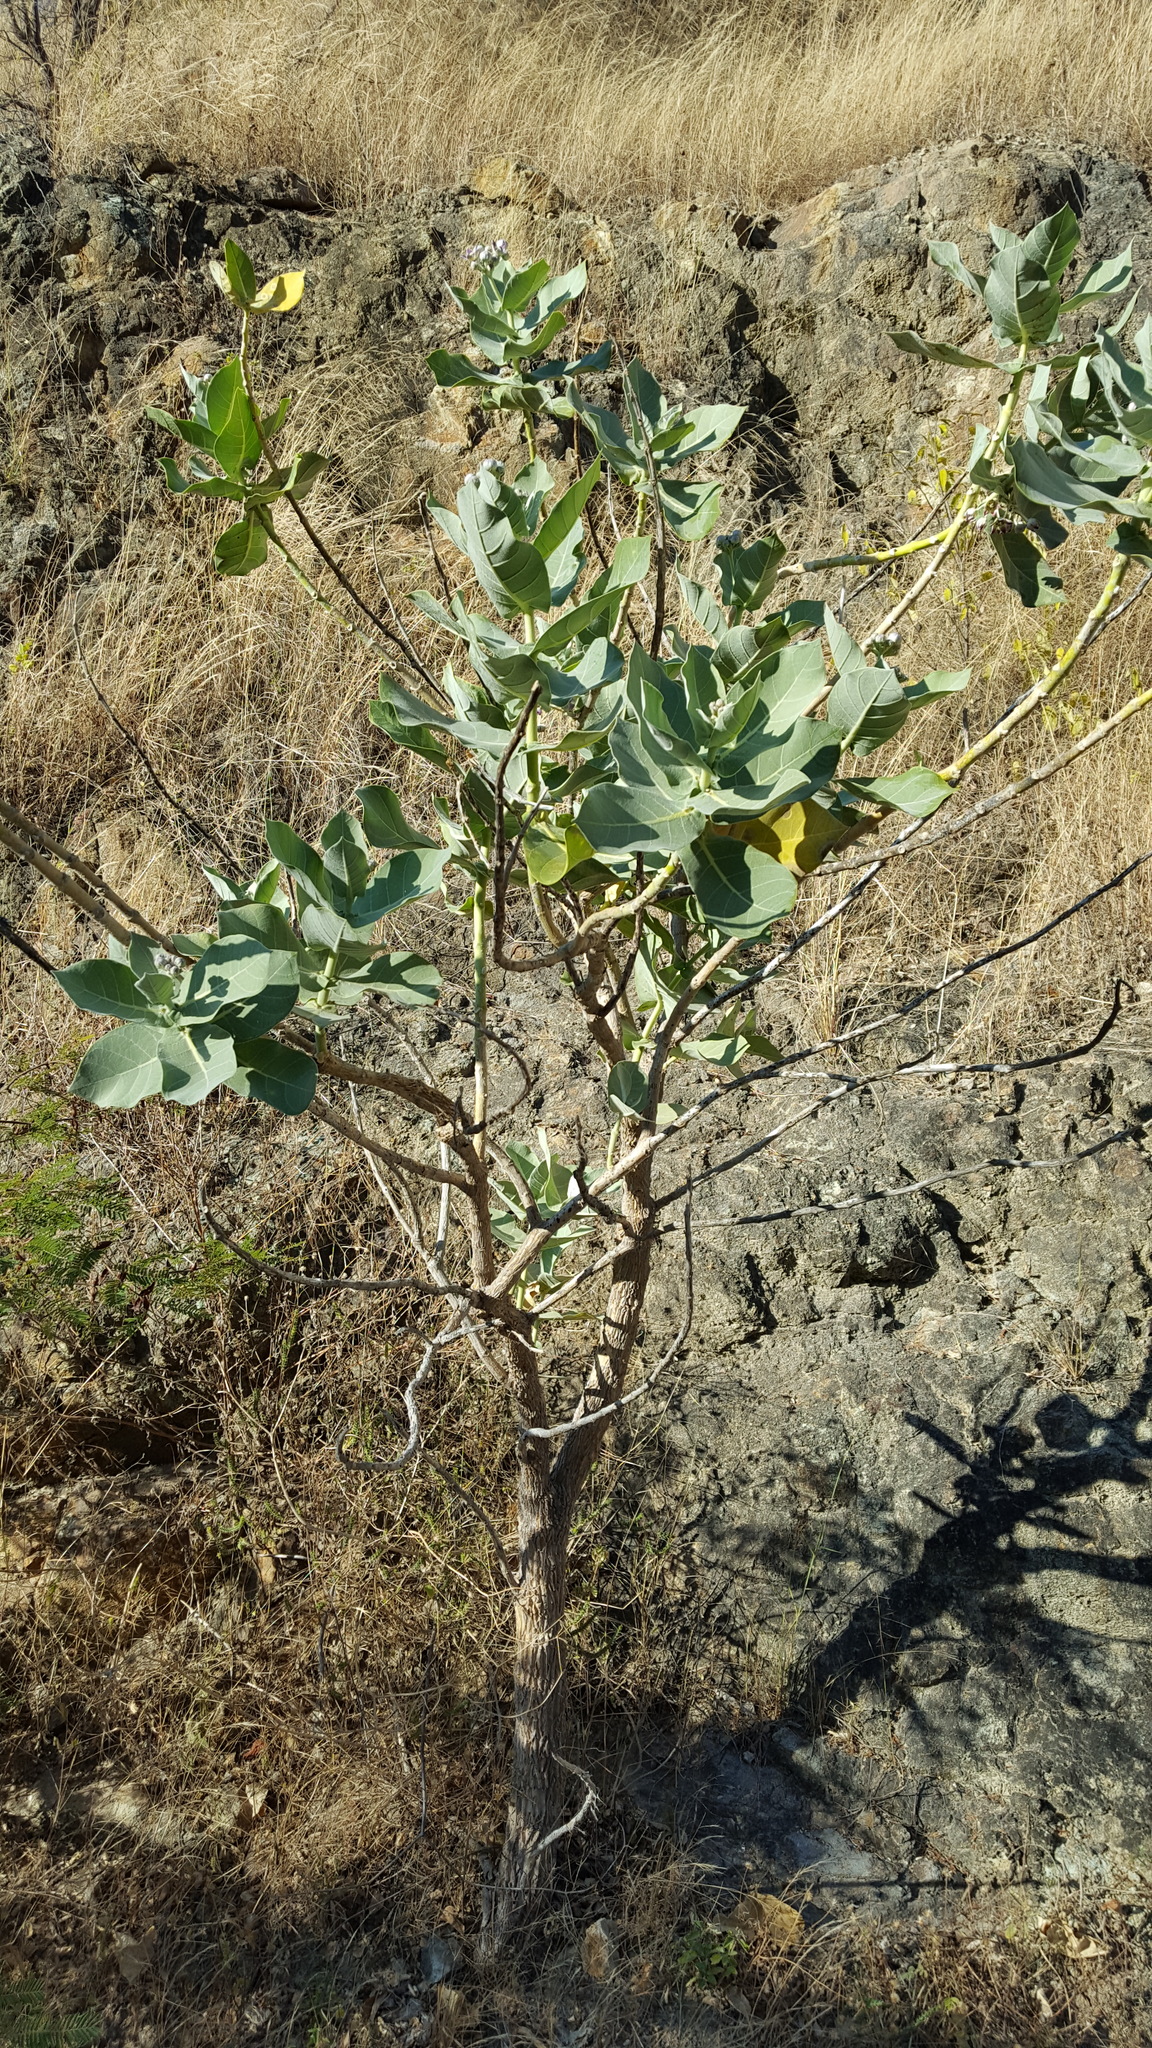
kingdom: Plantae
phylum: Tracheophyta
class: Magnoliopsida
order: Gentianales
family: Apocynaceae
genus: Calotropis
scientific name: Calotropis procera
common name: Roostertree
